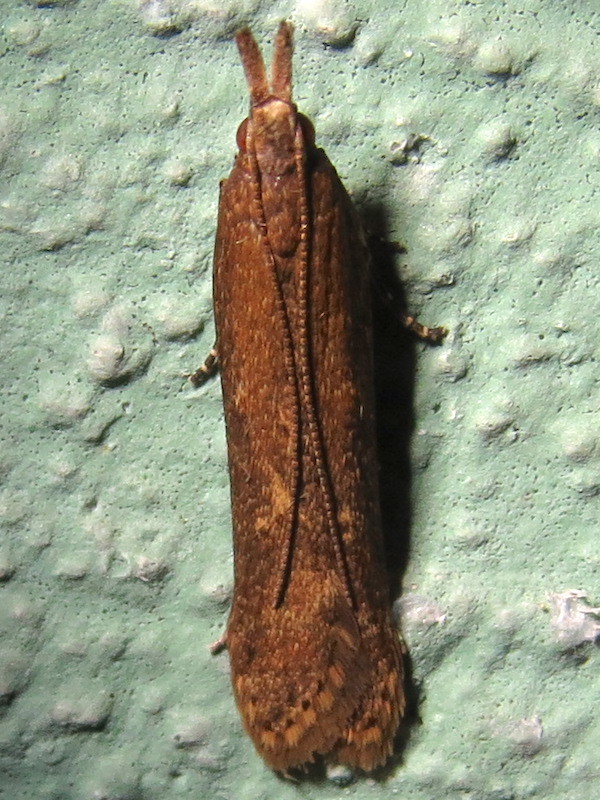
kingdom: Animalia
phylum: Arthropoda
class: Insecta
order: Lepidoptera
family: Gelechiidae
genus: Dichomeris
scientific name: Dichomeris ligulella
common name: Moth
